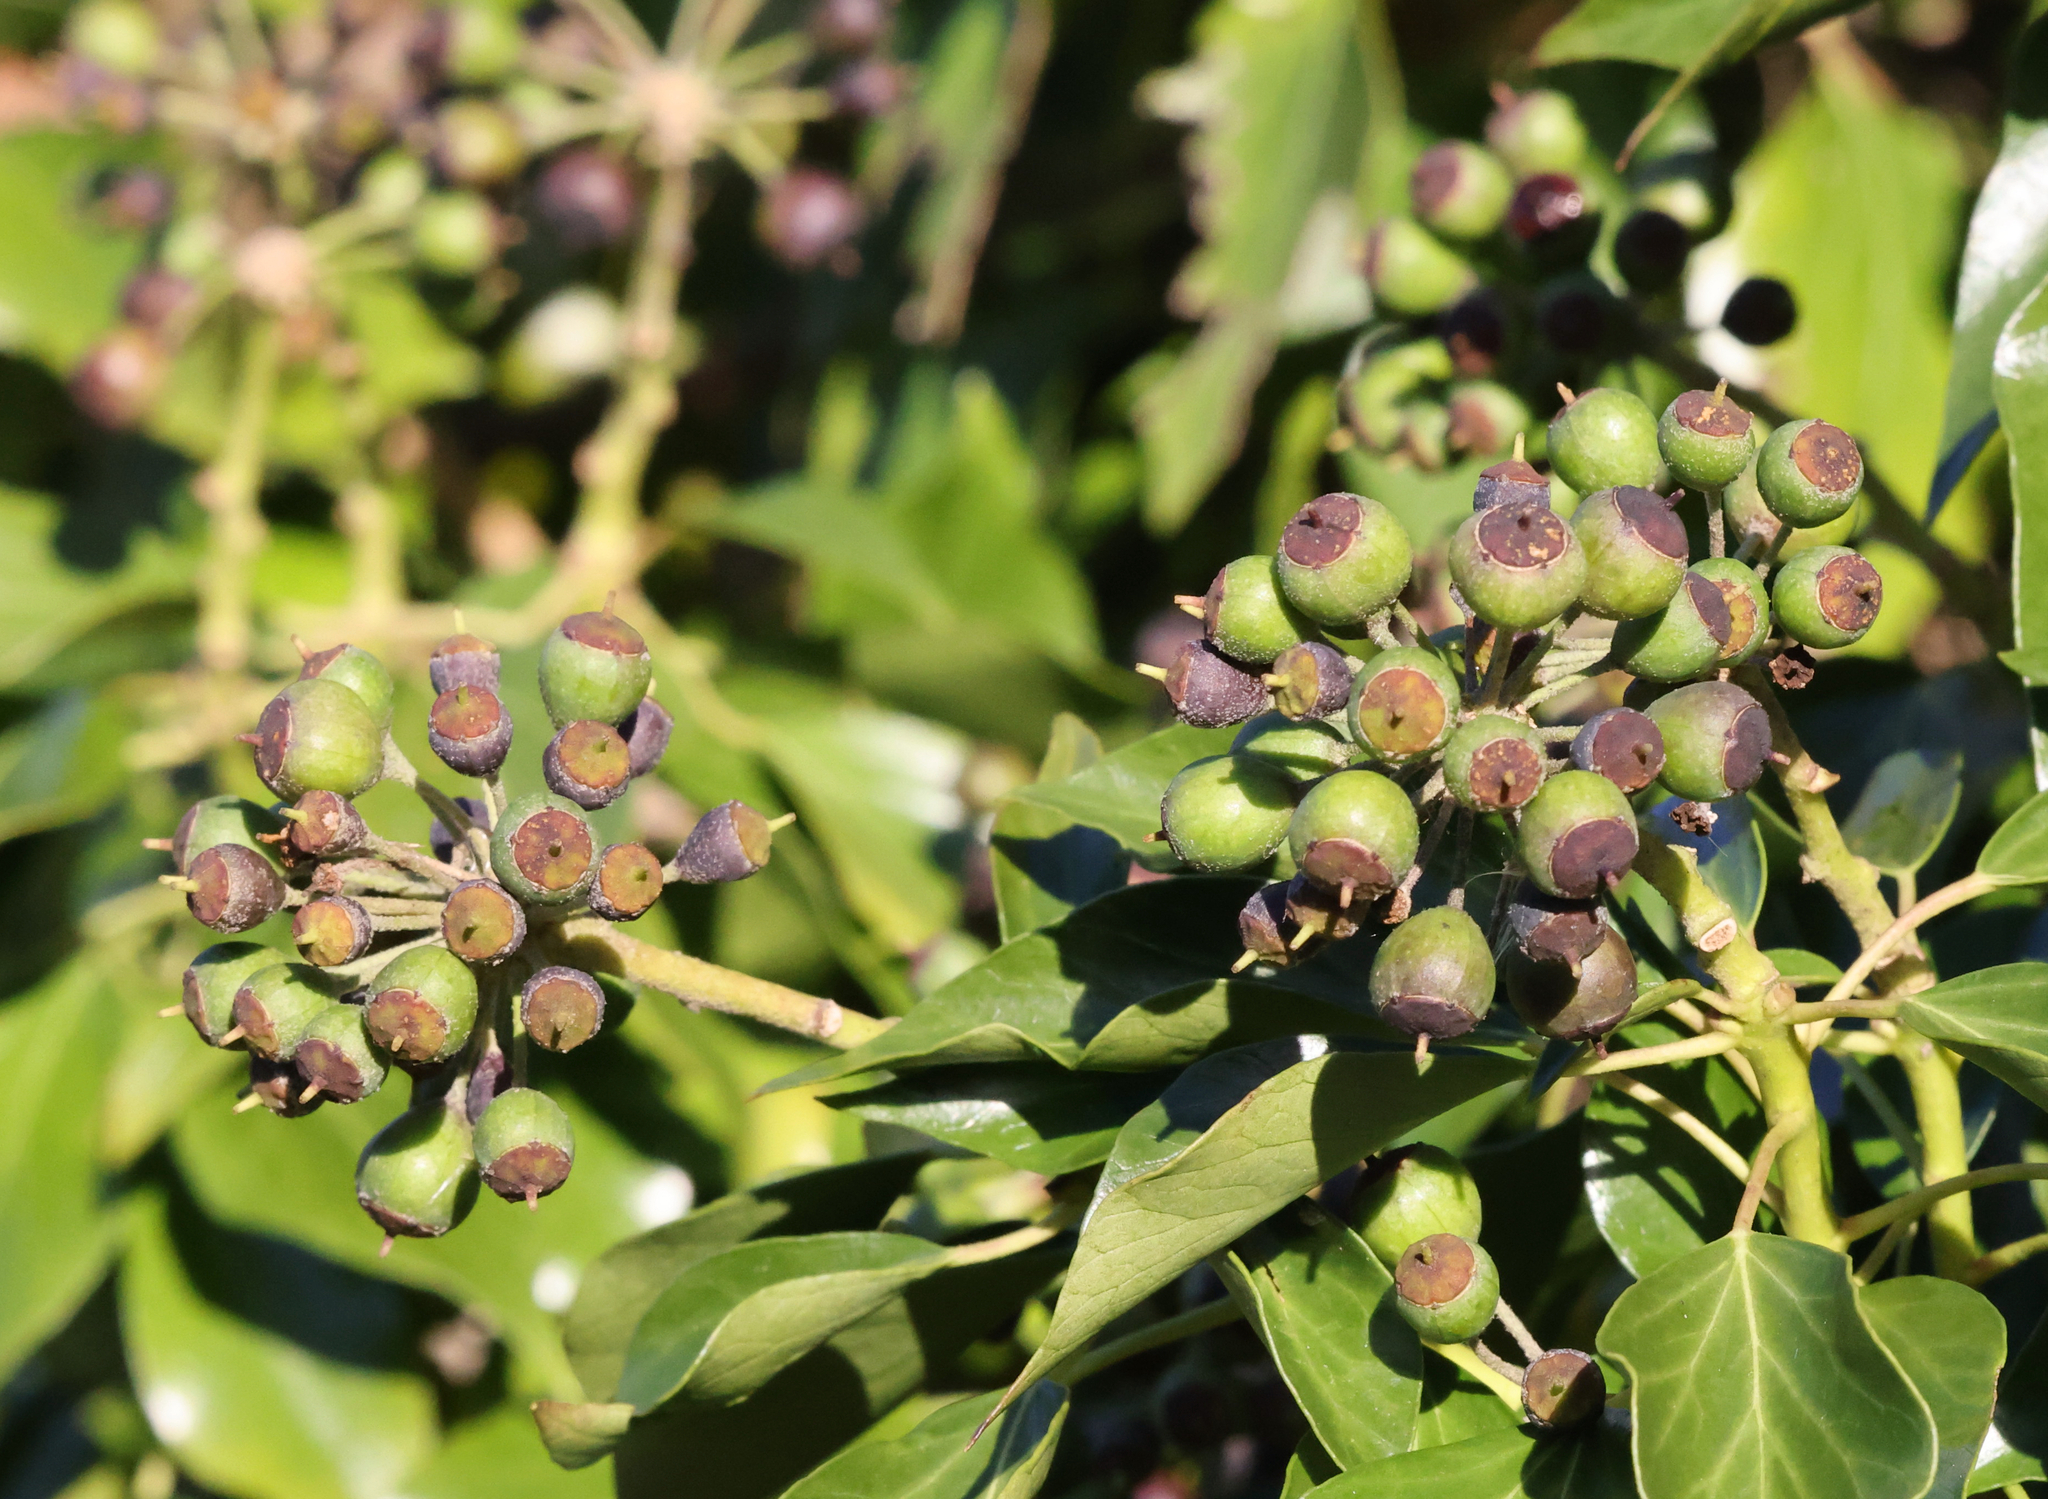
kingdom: Plantae
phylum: Tracheophyta
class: Magnoliopsida
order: Apiales
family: Araliaceae
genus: Hedera
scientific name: Hedera helix
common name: Ivy
